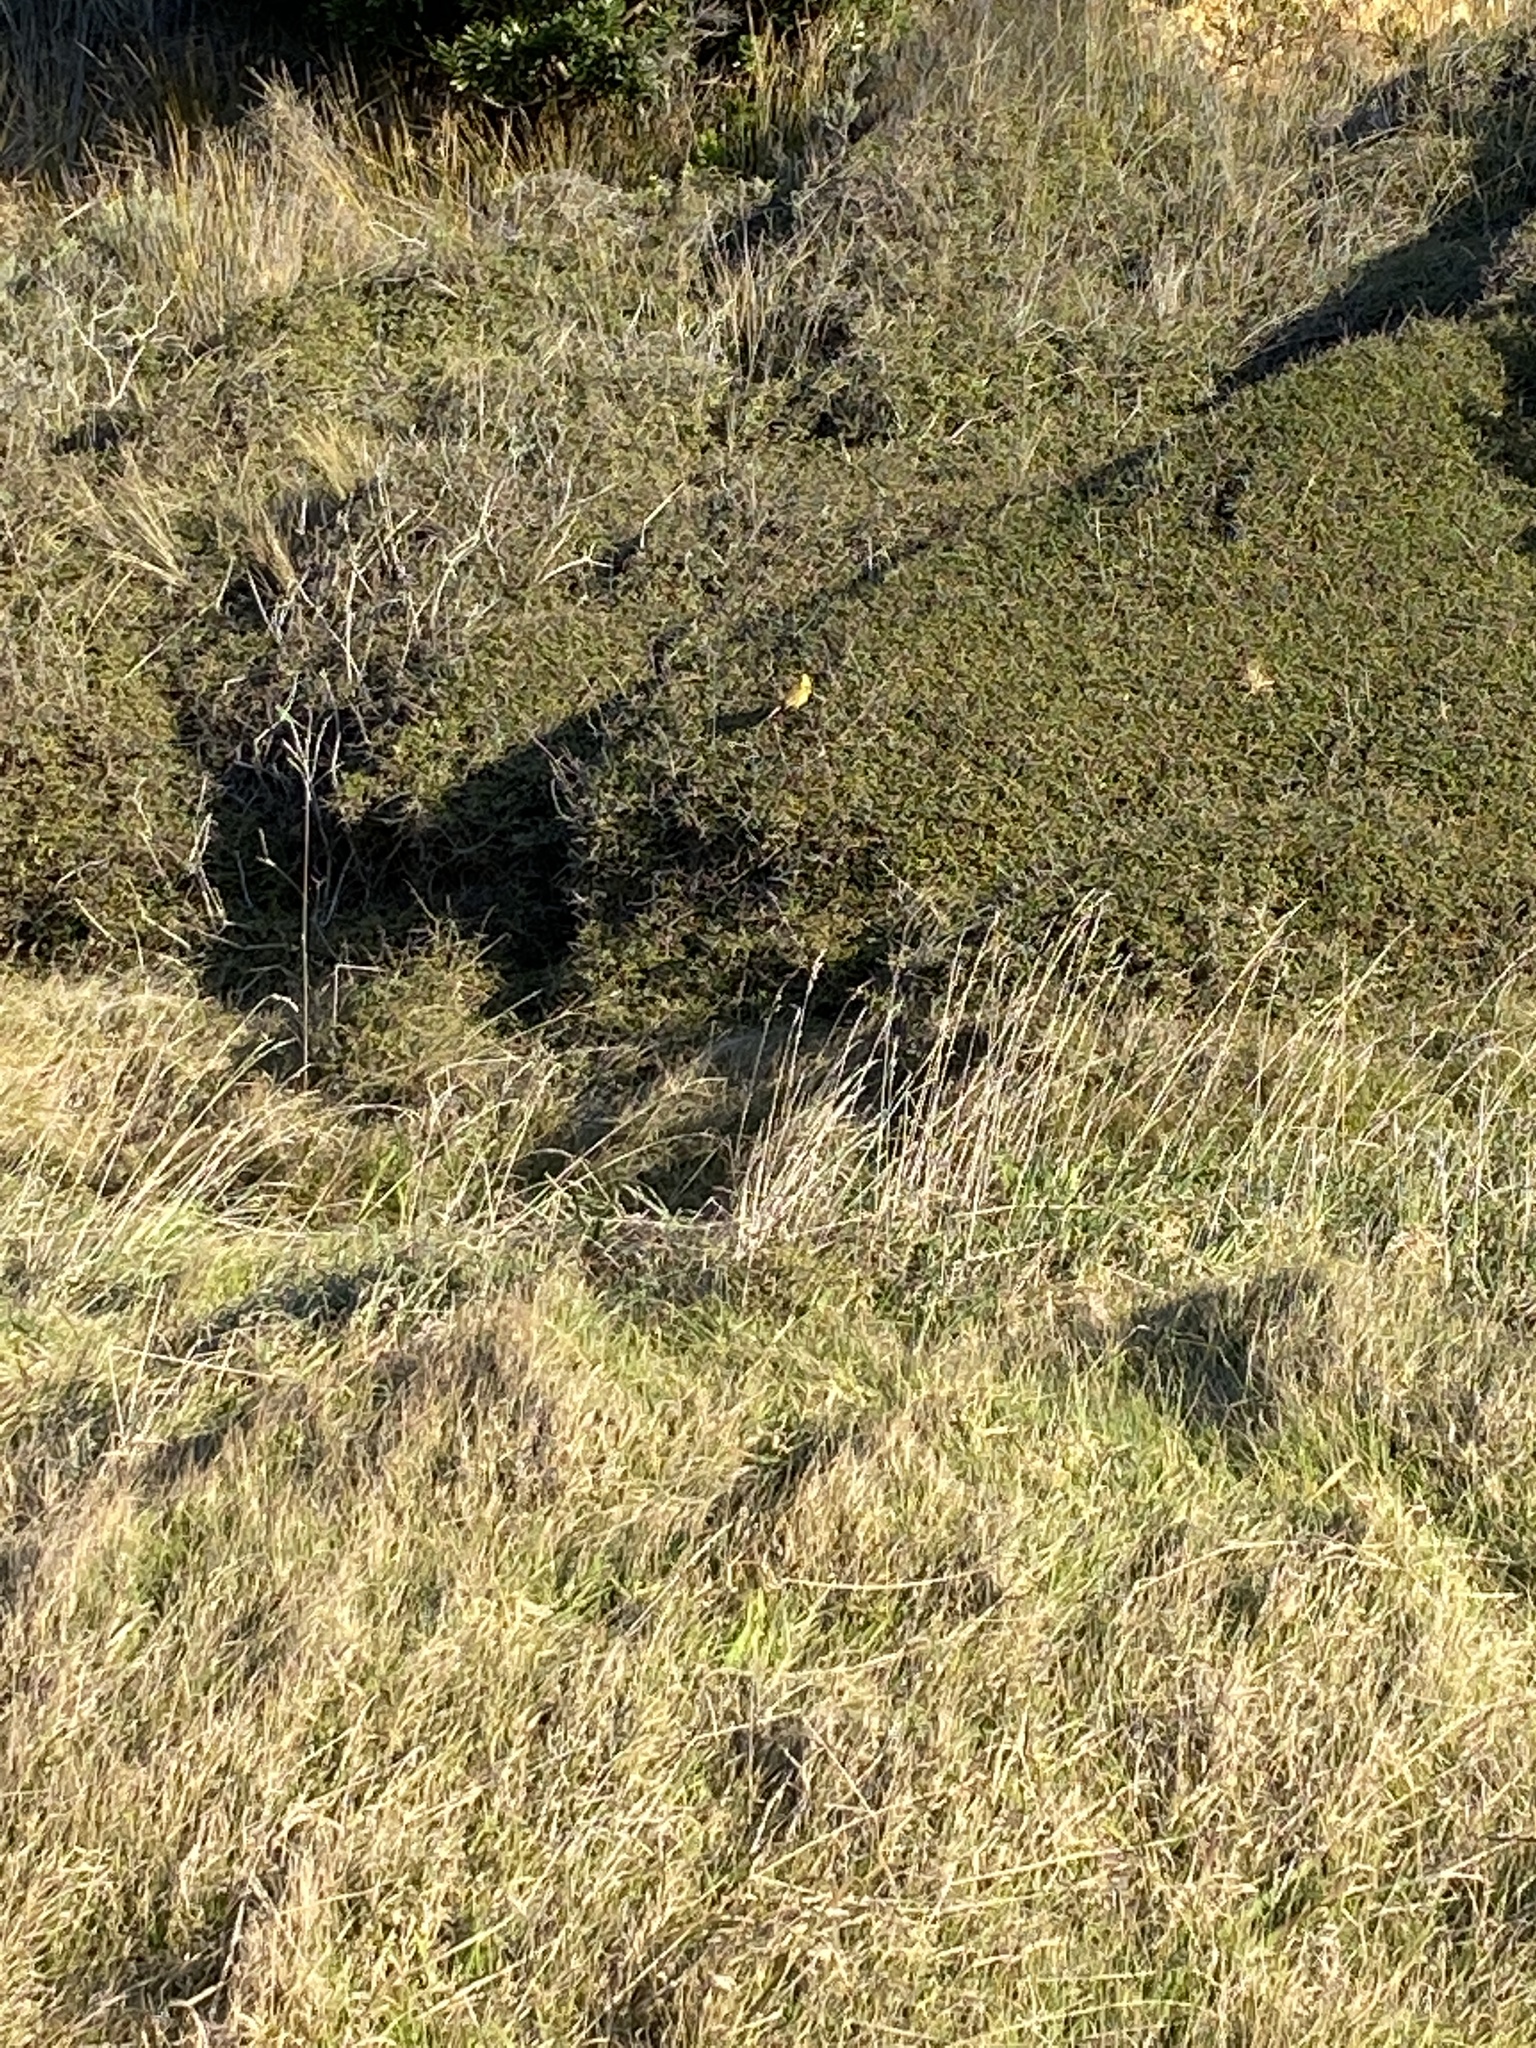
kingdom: Animalia
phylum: Chordata
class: Aves
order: Passeriformes
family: Emberizidae
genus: Emberiza
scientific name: Emberiza citrinella
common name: Yellowhammer
